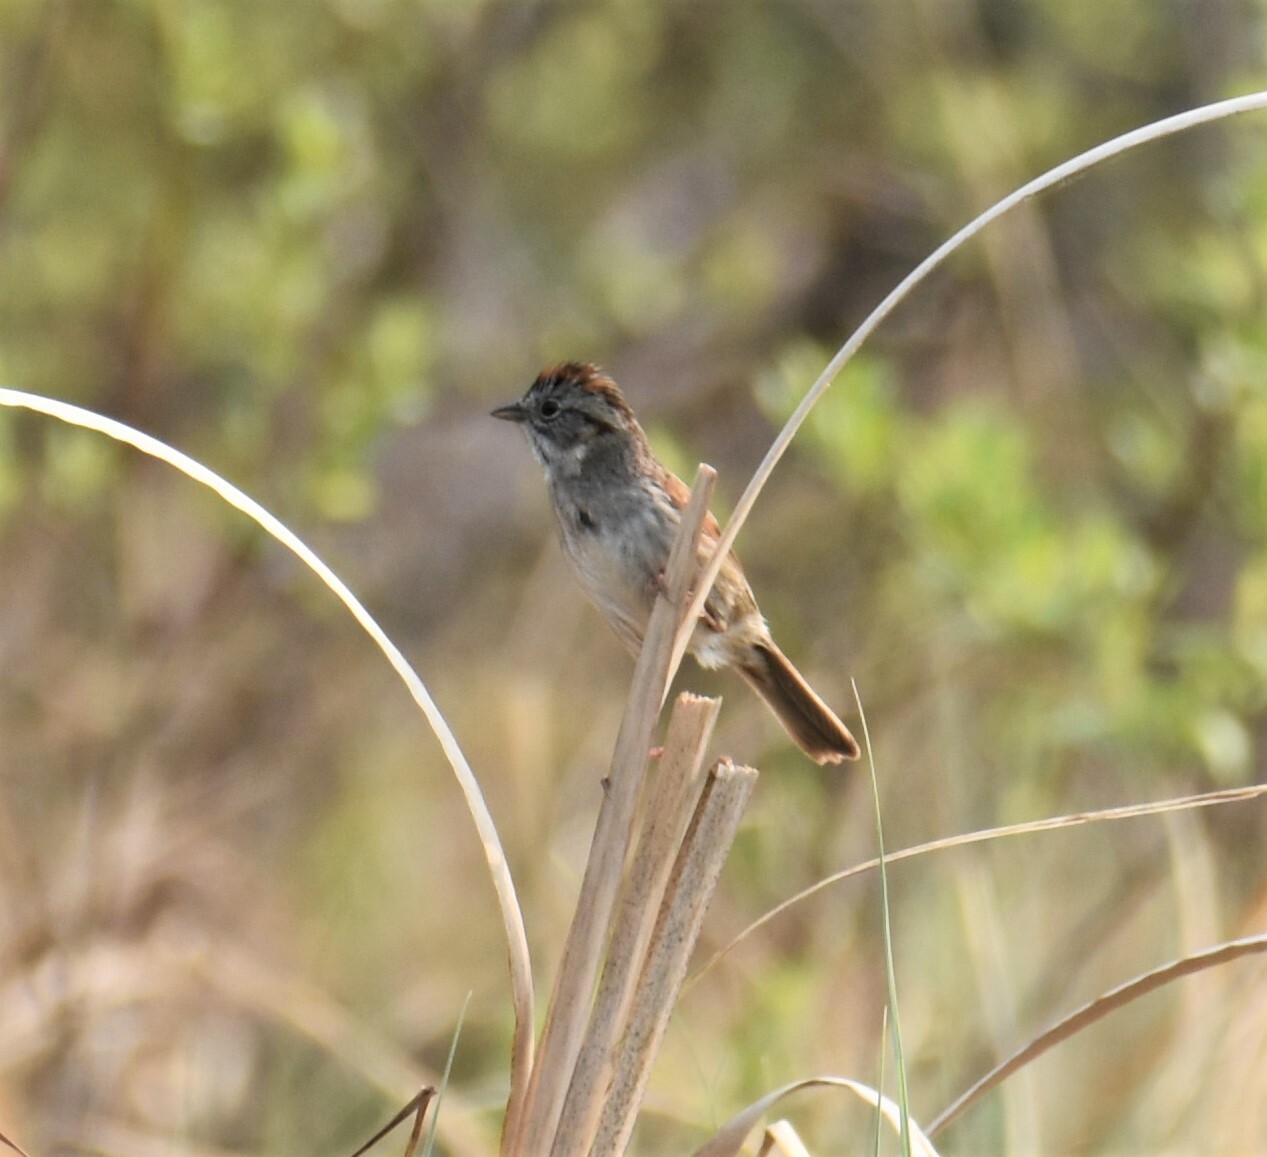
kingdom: Animalia
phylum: Chordata
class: Aves
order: Passeriformes
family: Passerellidae
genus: Melospiza
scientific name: Melospiza georgiana
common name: Swamp sparrow
